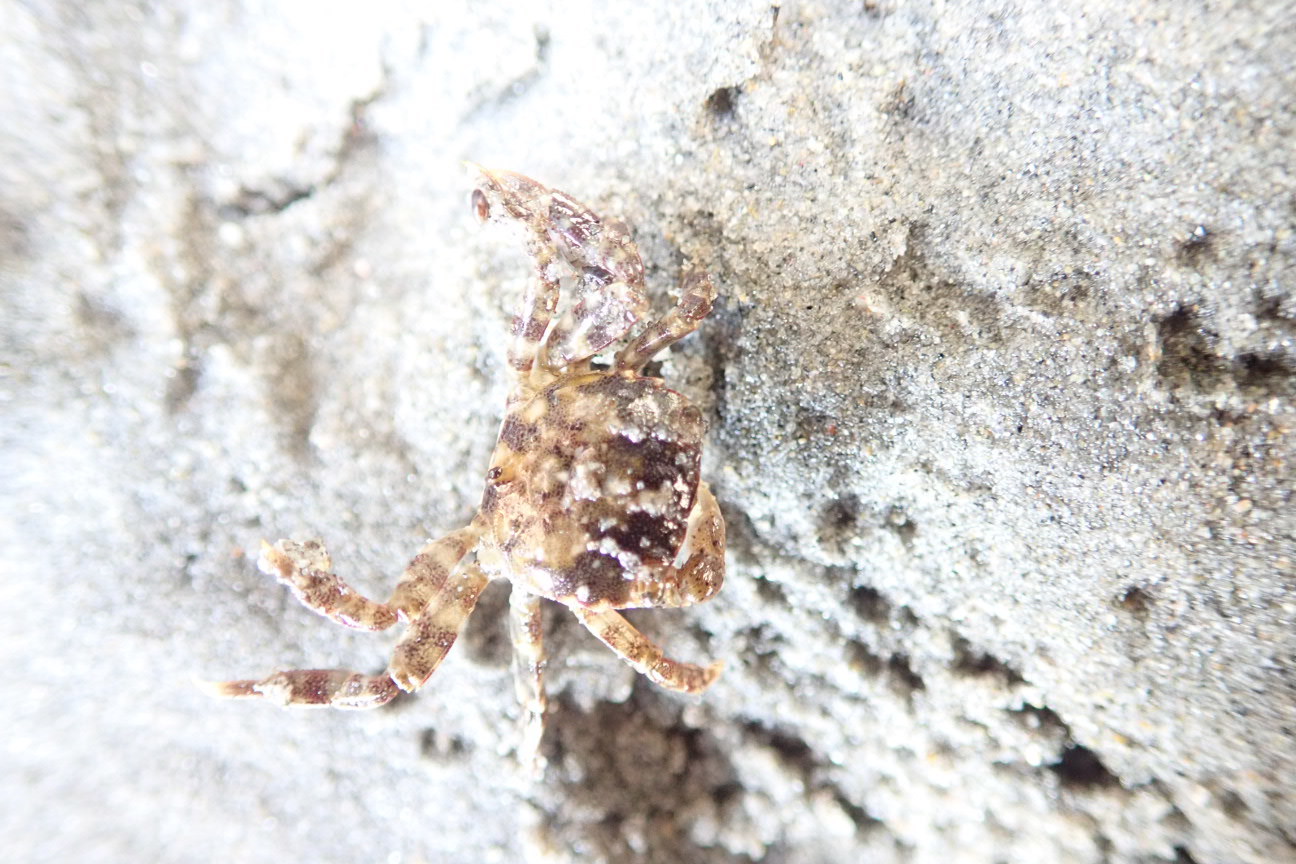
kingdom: Animalia
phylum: Arthropoda
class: Malacostraca
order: Decapoda
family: Varunidae
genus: Hemigrapsus
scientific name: Hemigrapsus sanguineus
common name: Asian shore crab
